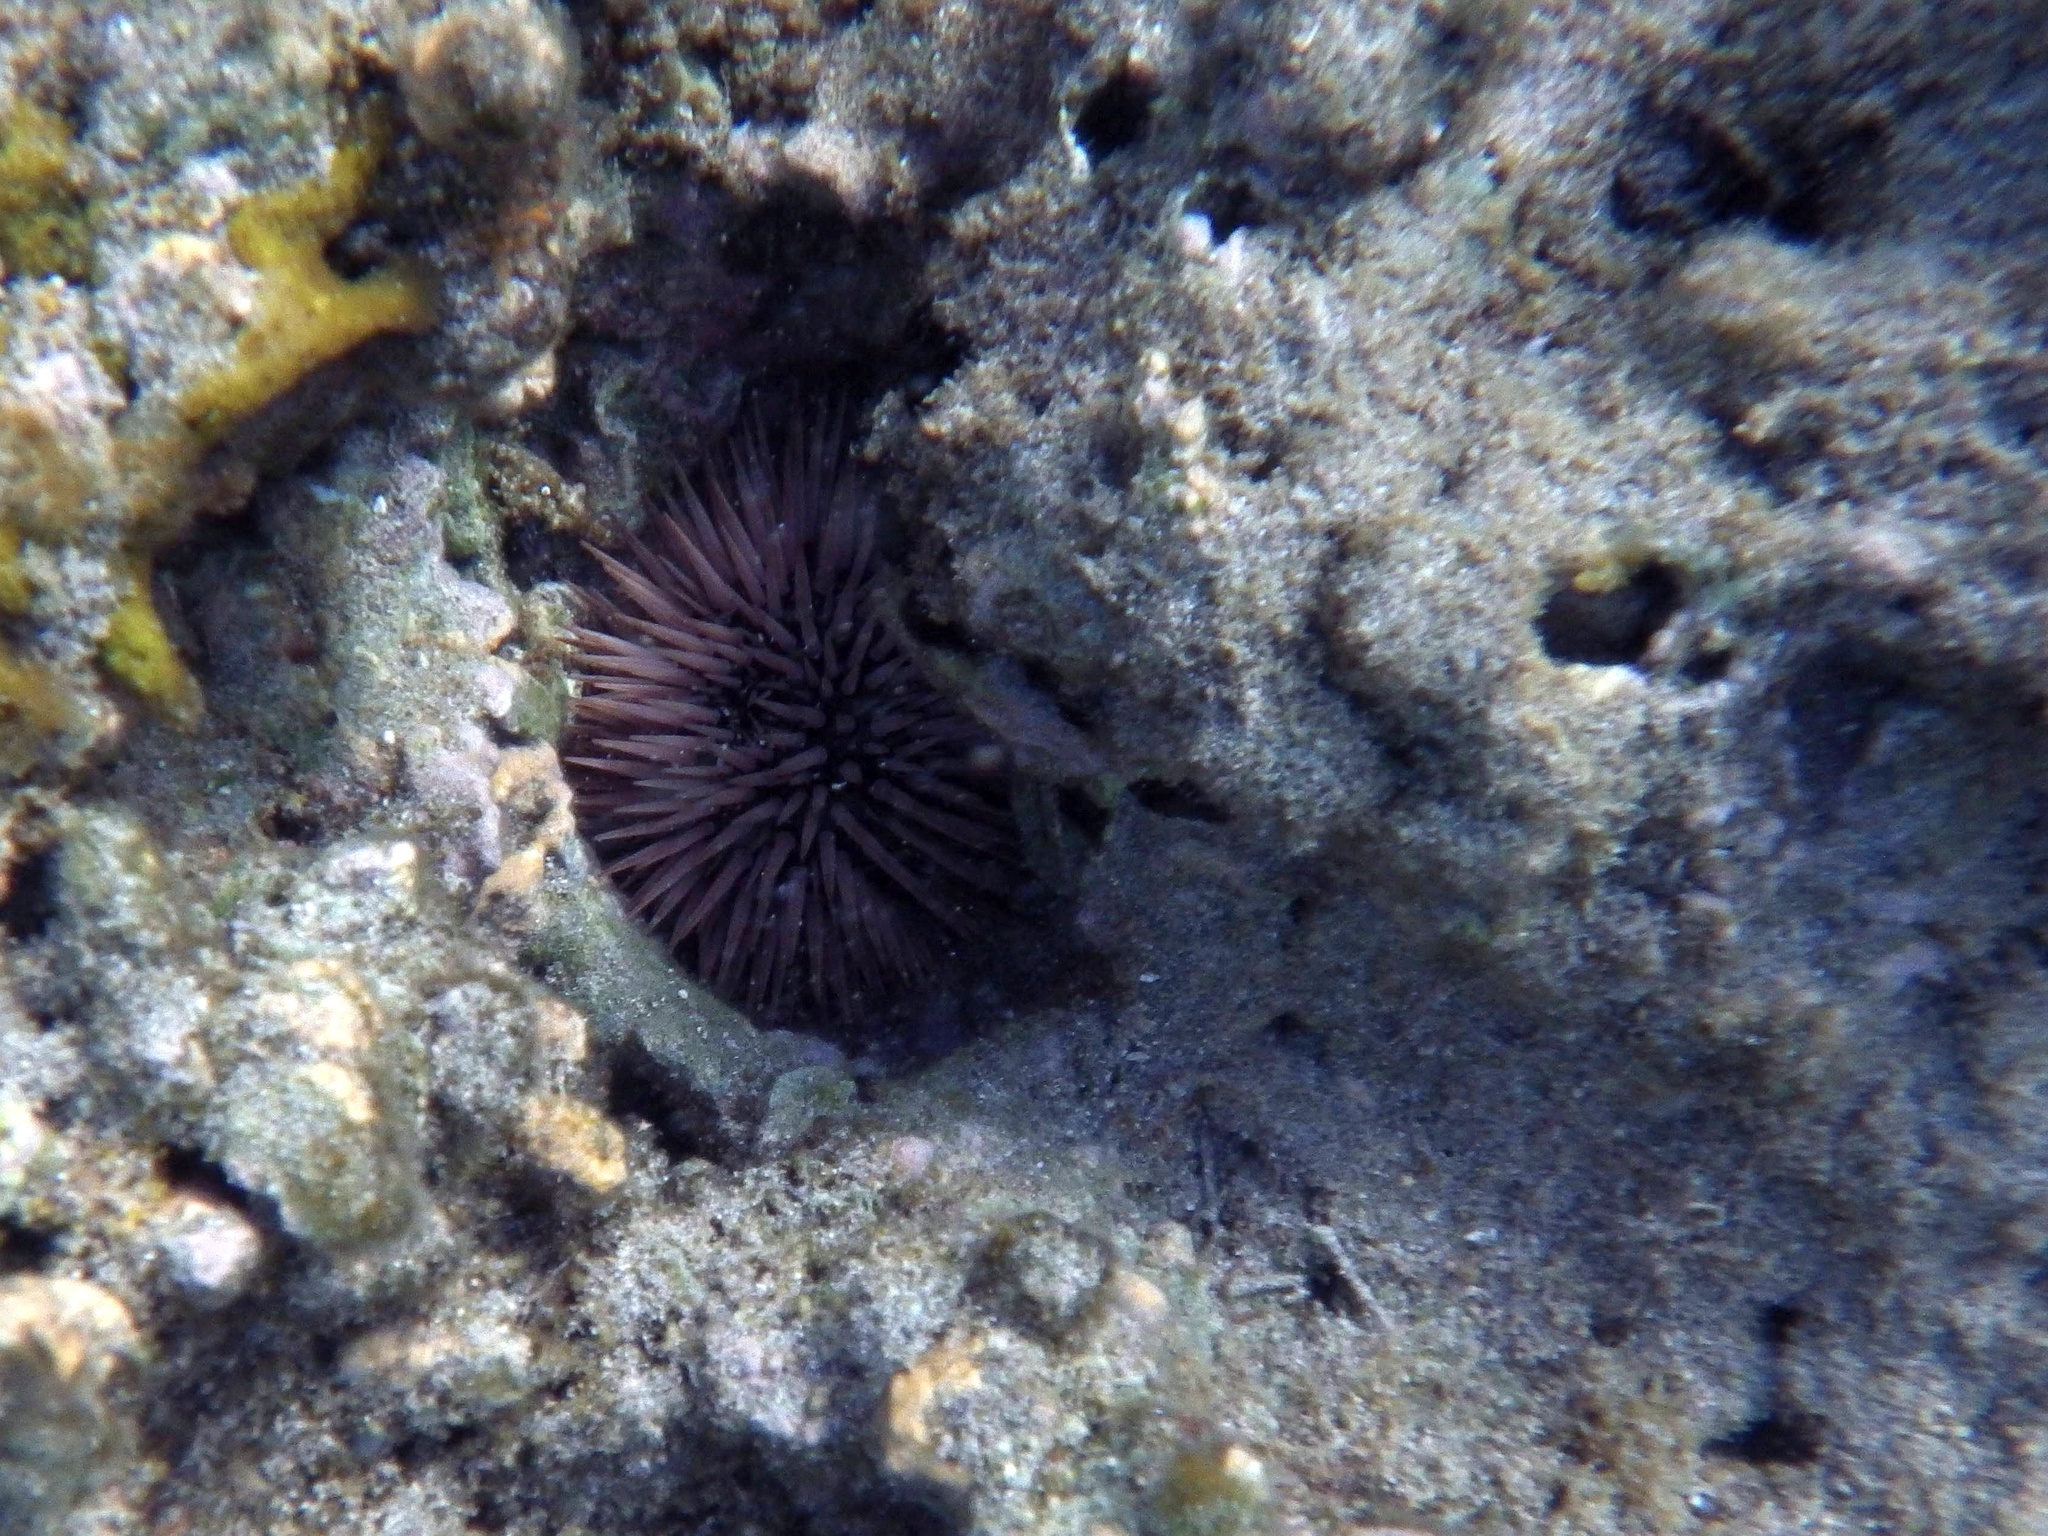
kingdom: Animalia
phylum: Echinodermata
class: Echinoidea
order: Camarodonta
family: Echinometridae
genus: Echinometra
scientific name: Echinometra mathaei
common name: Rock-boring urchin
